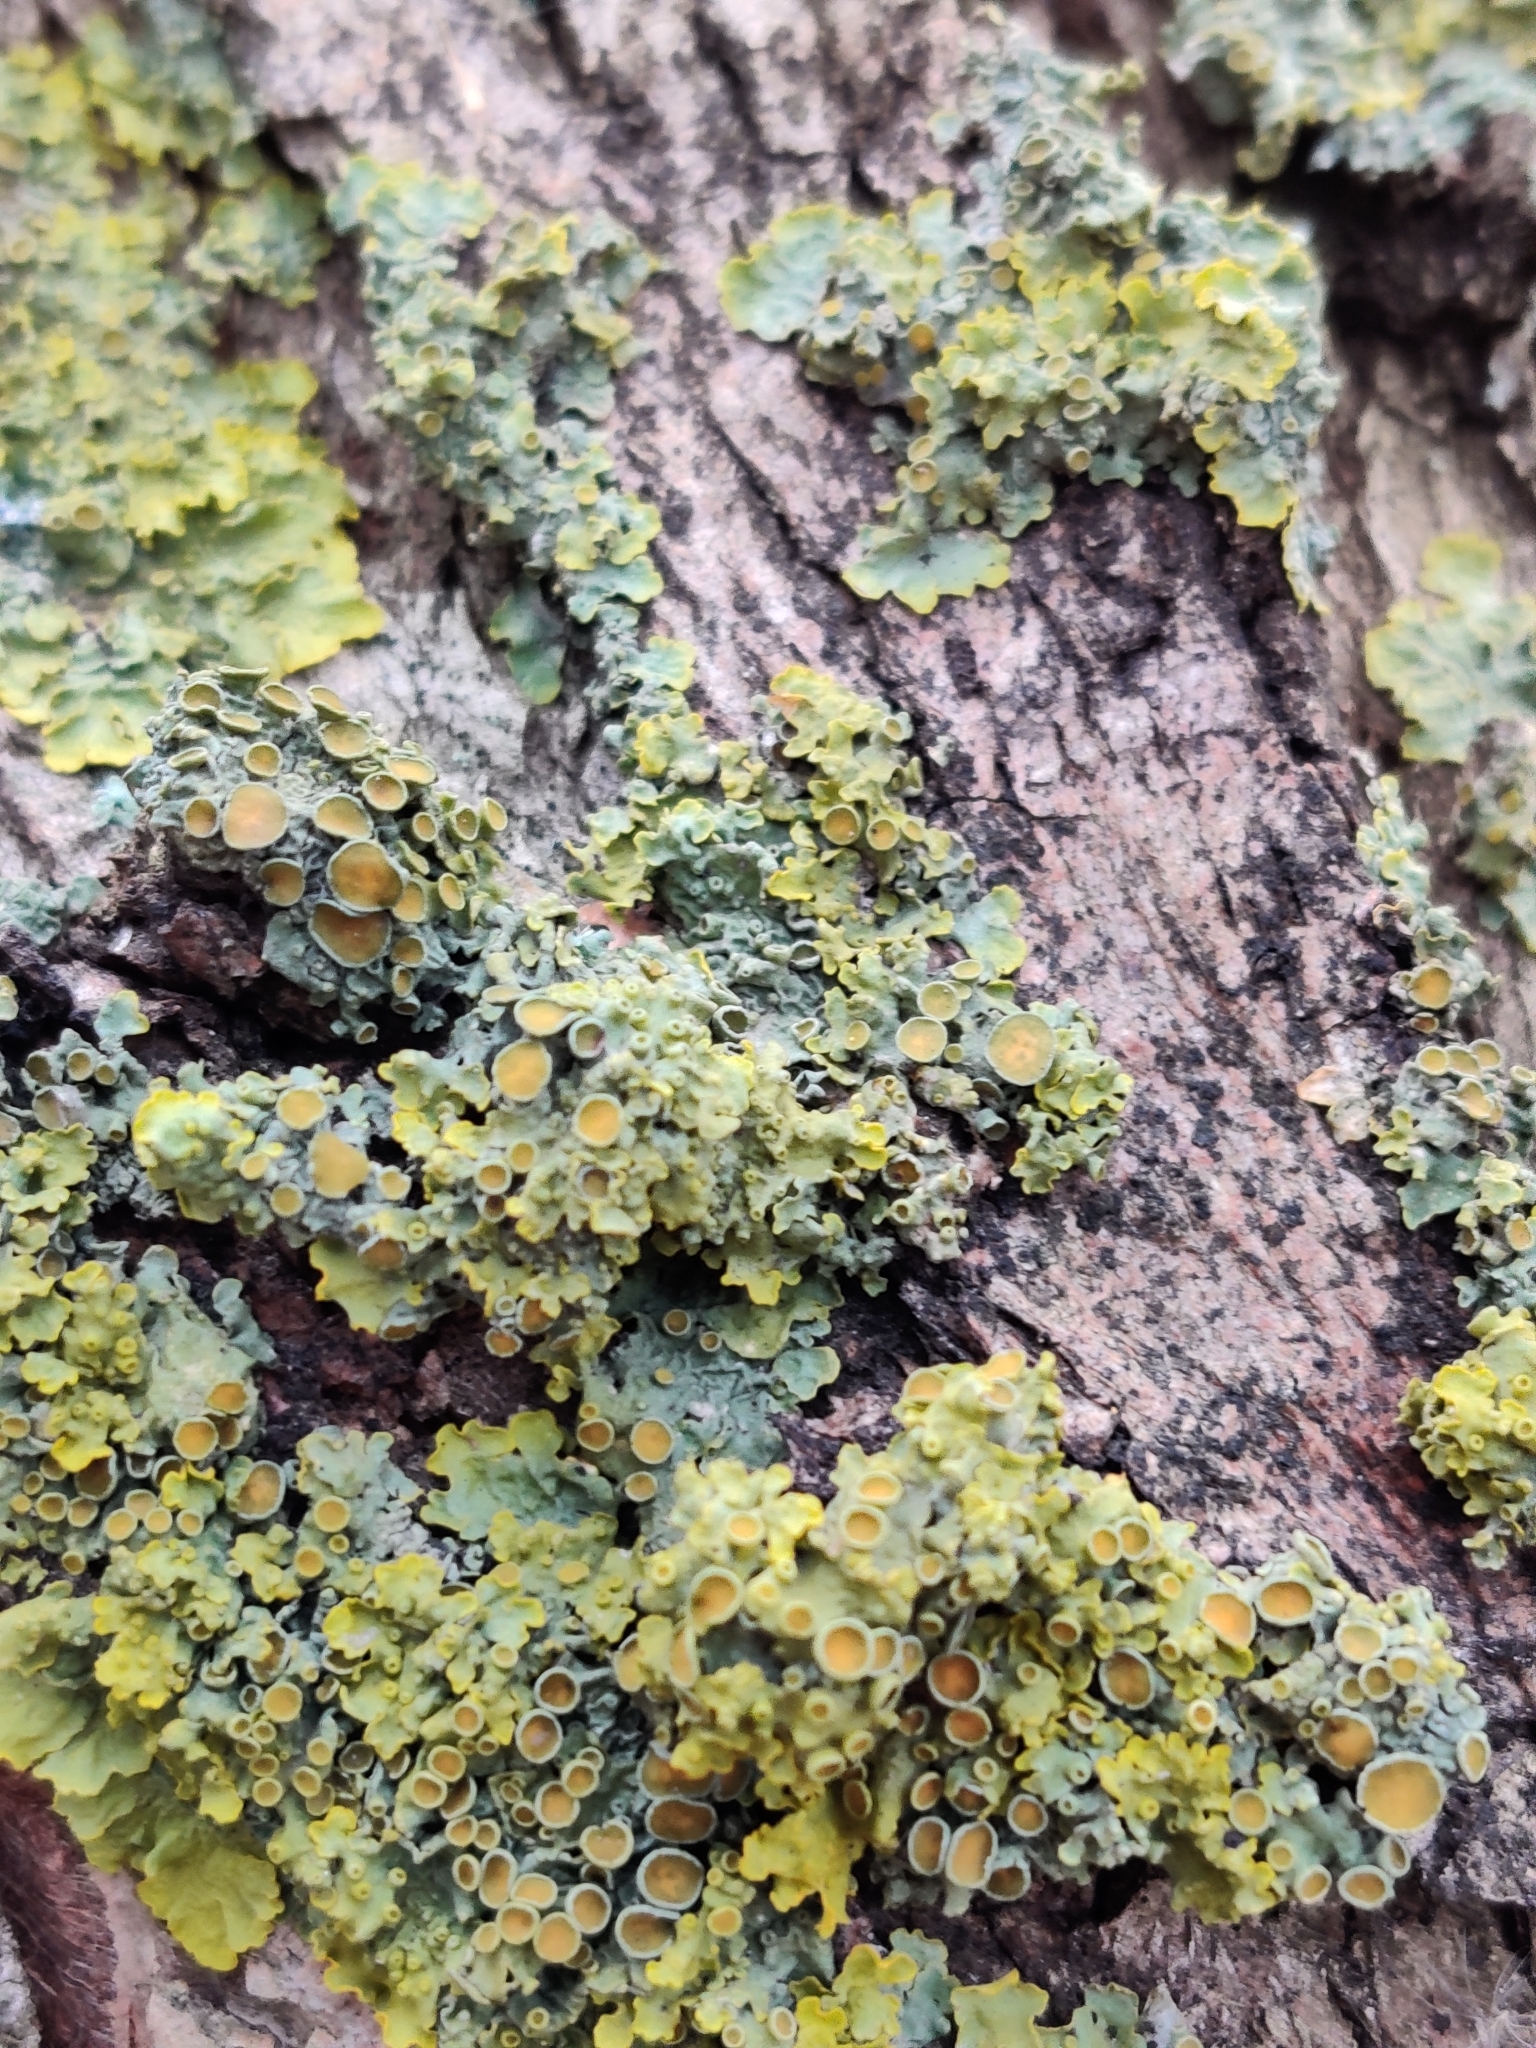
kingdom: Fungi
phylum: Ascomycota
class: Lecanoromycetes
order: Teloschistales
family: Teloschistaceae
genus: Xanthoria
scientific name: Xanthoria parietina
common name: Common orange lichen
